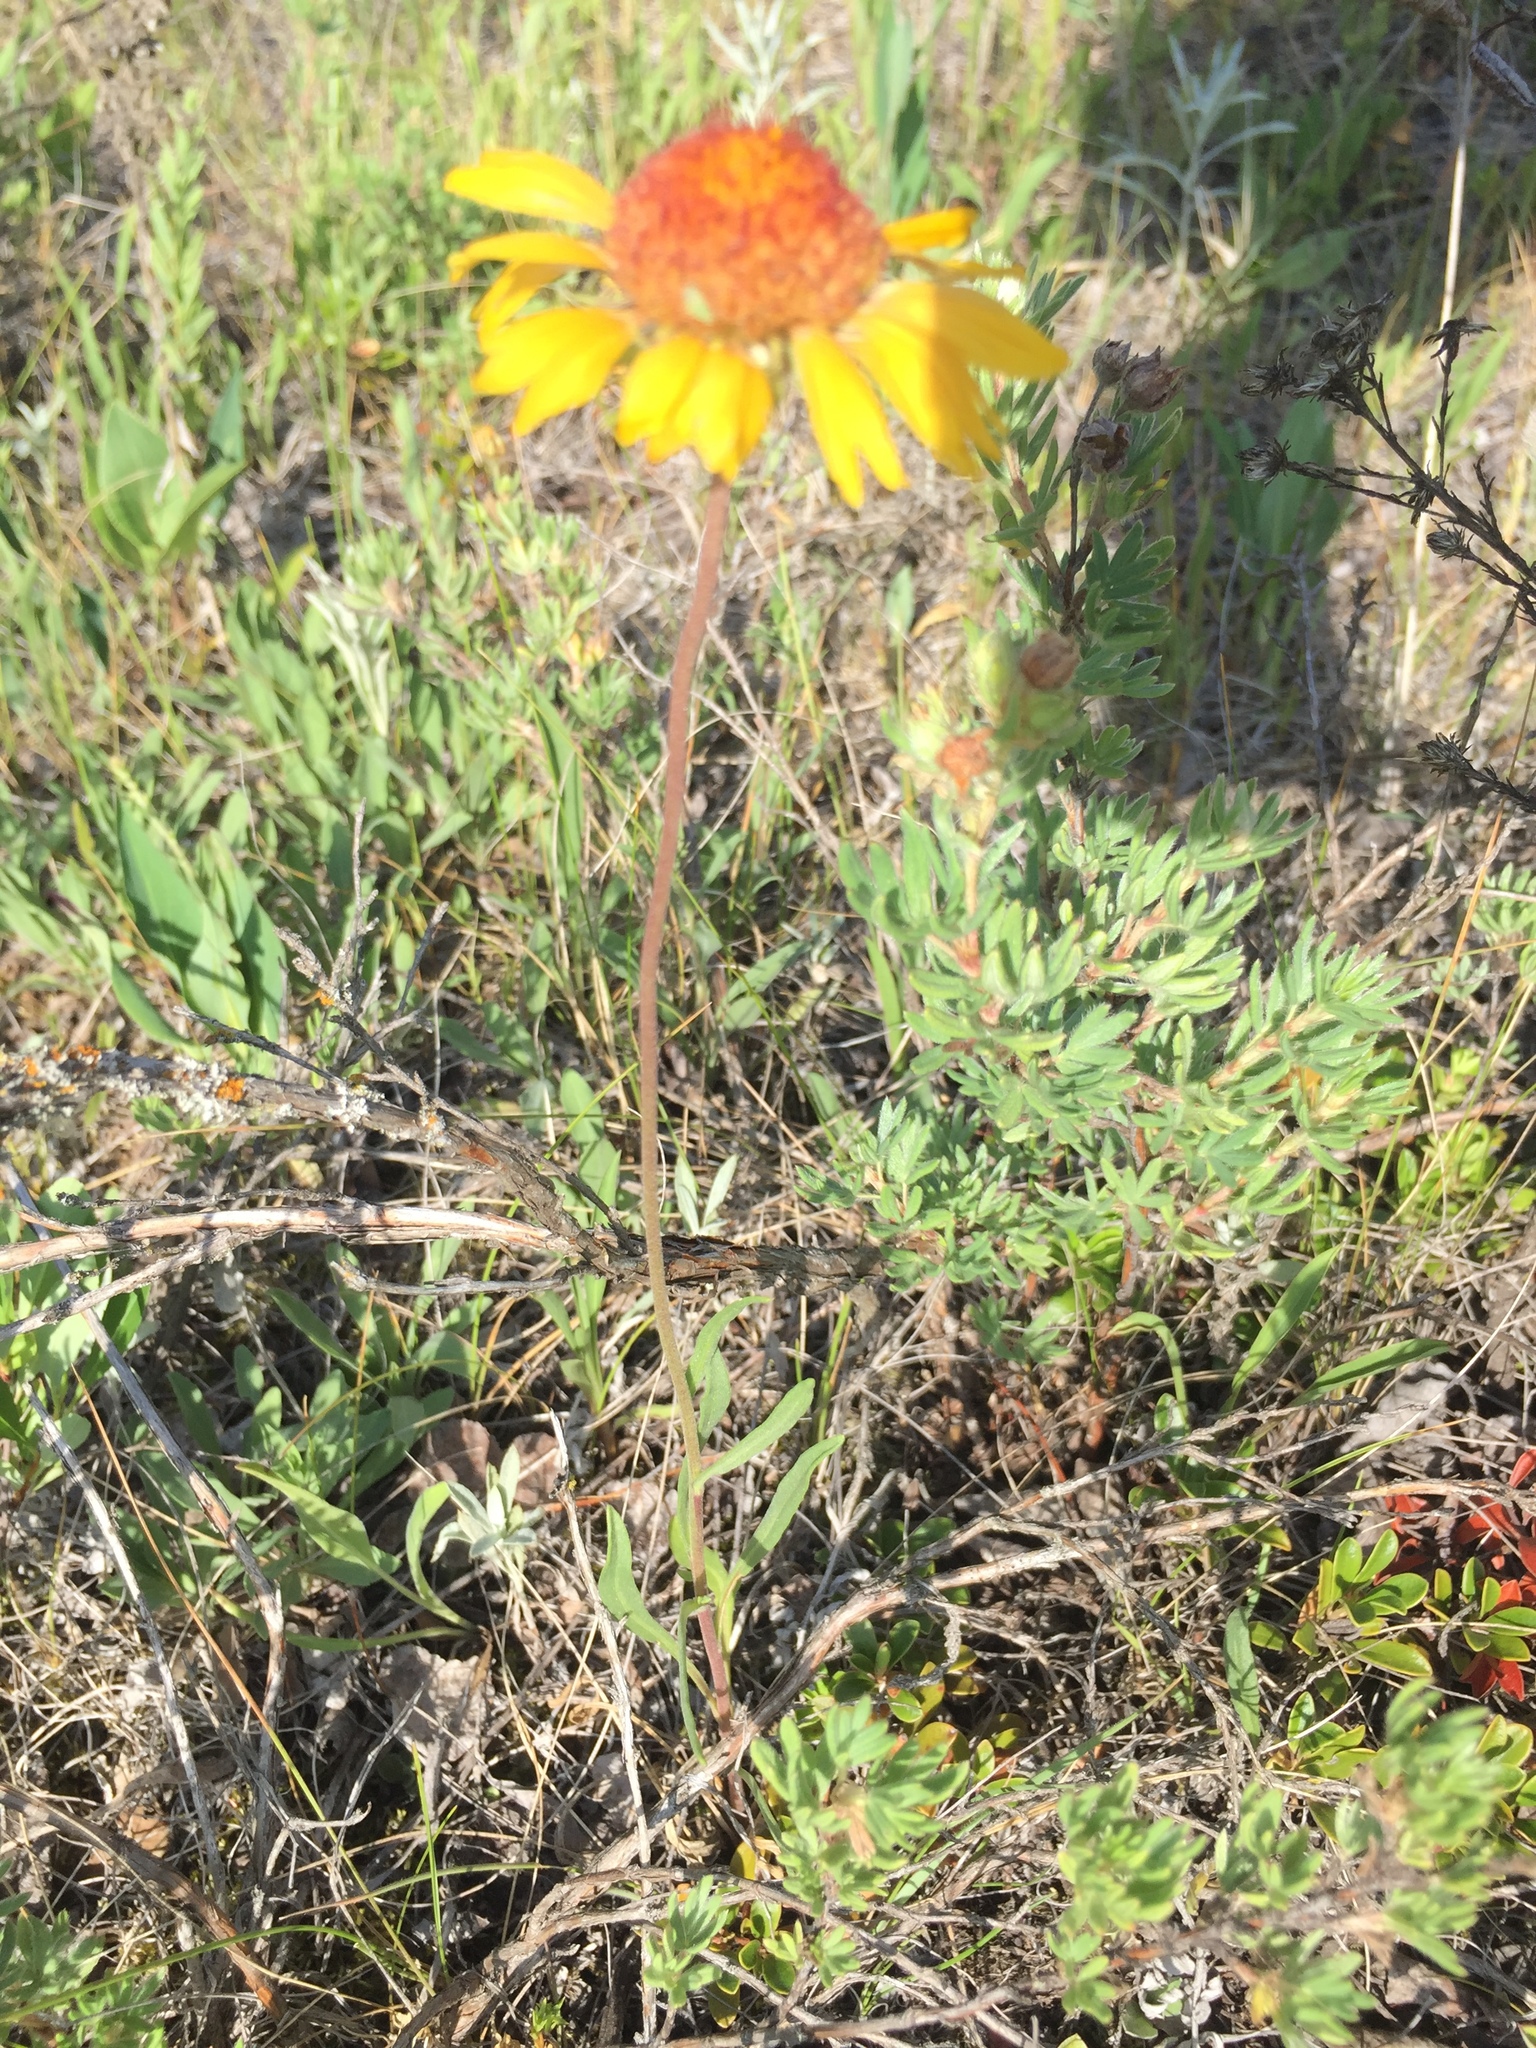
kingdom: Plantae
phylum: Tracheophyta
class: Magnoliopsida
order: Asterales
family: Asteraceae
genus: Gaillardia
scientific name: Gaillardia aristata
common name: Blanket-flower
